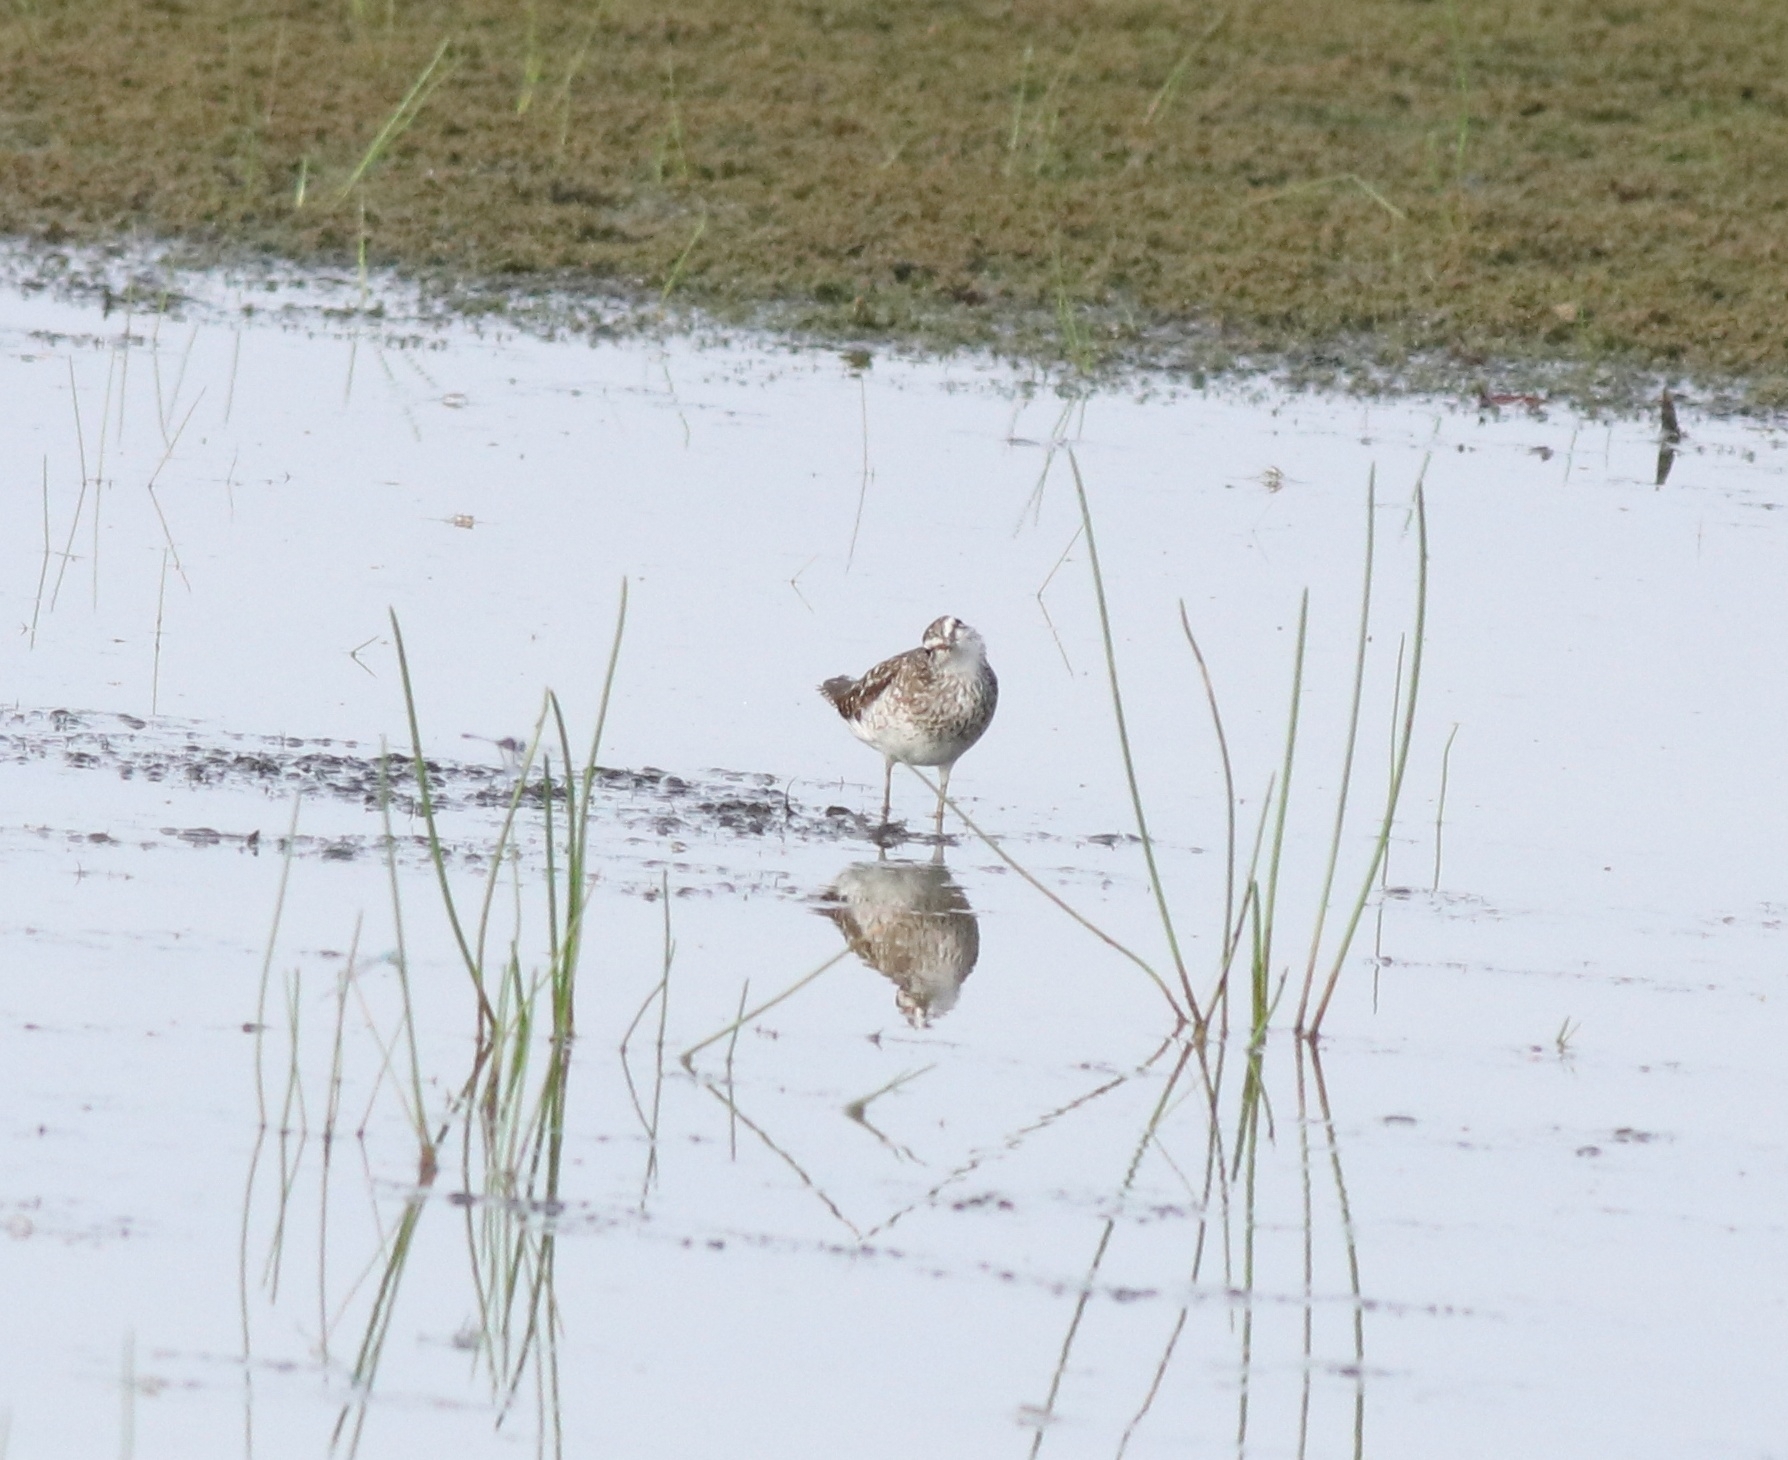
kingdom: Animalia
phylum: Chordata
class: Aves
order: Charadriiformes
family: Scolopacidae
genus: Tringa
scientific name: Tringa glareola
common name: Wood sandpiper
